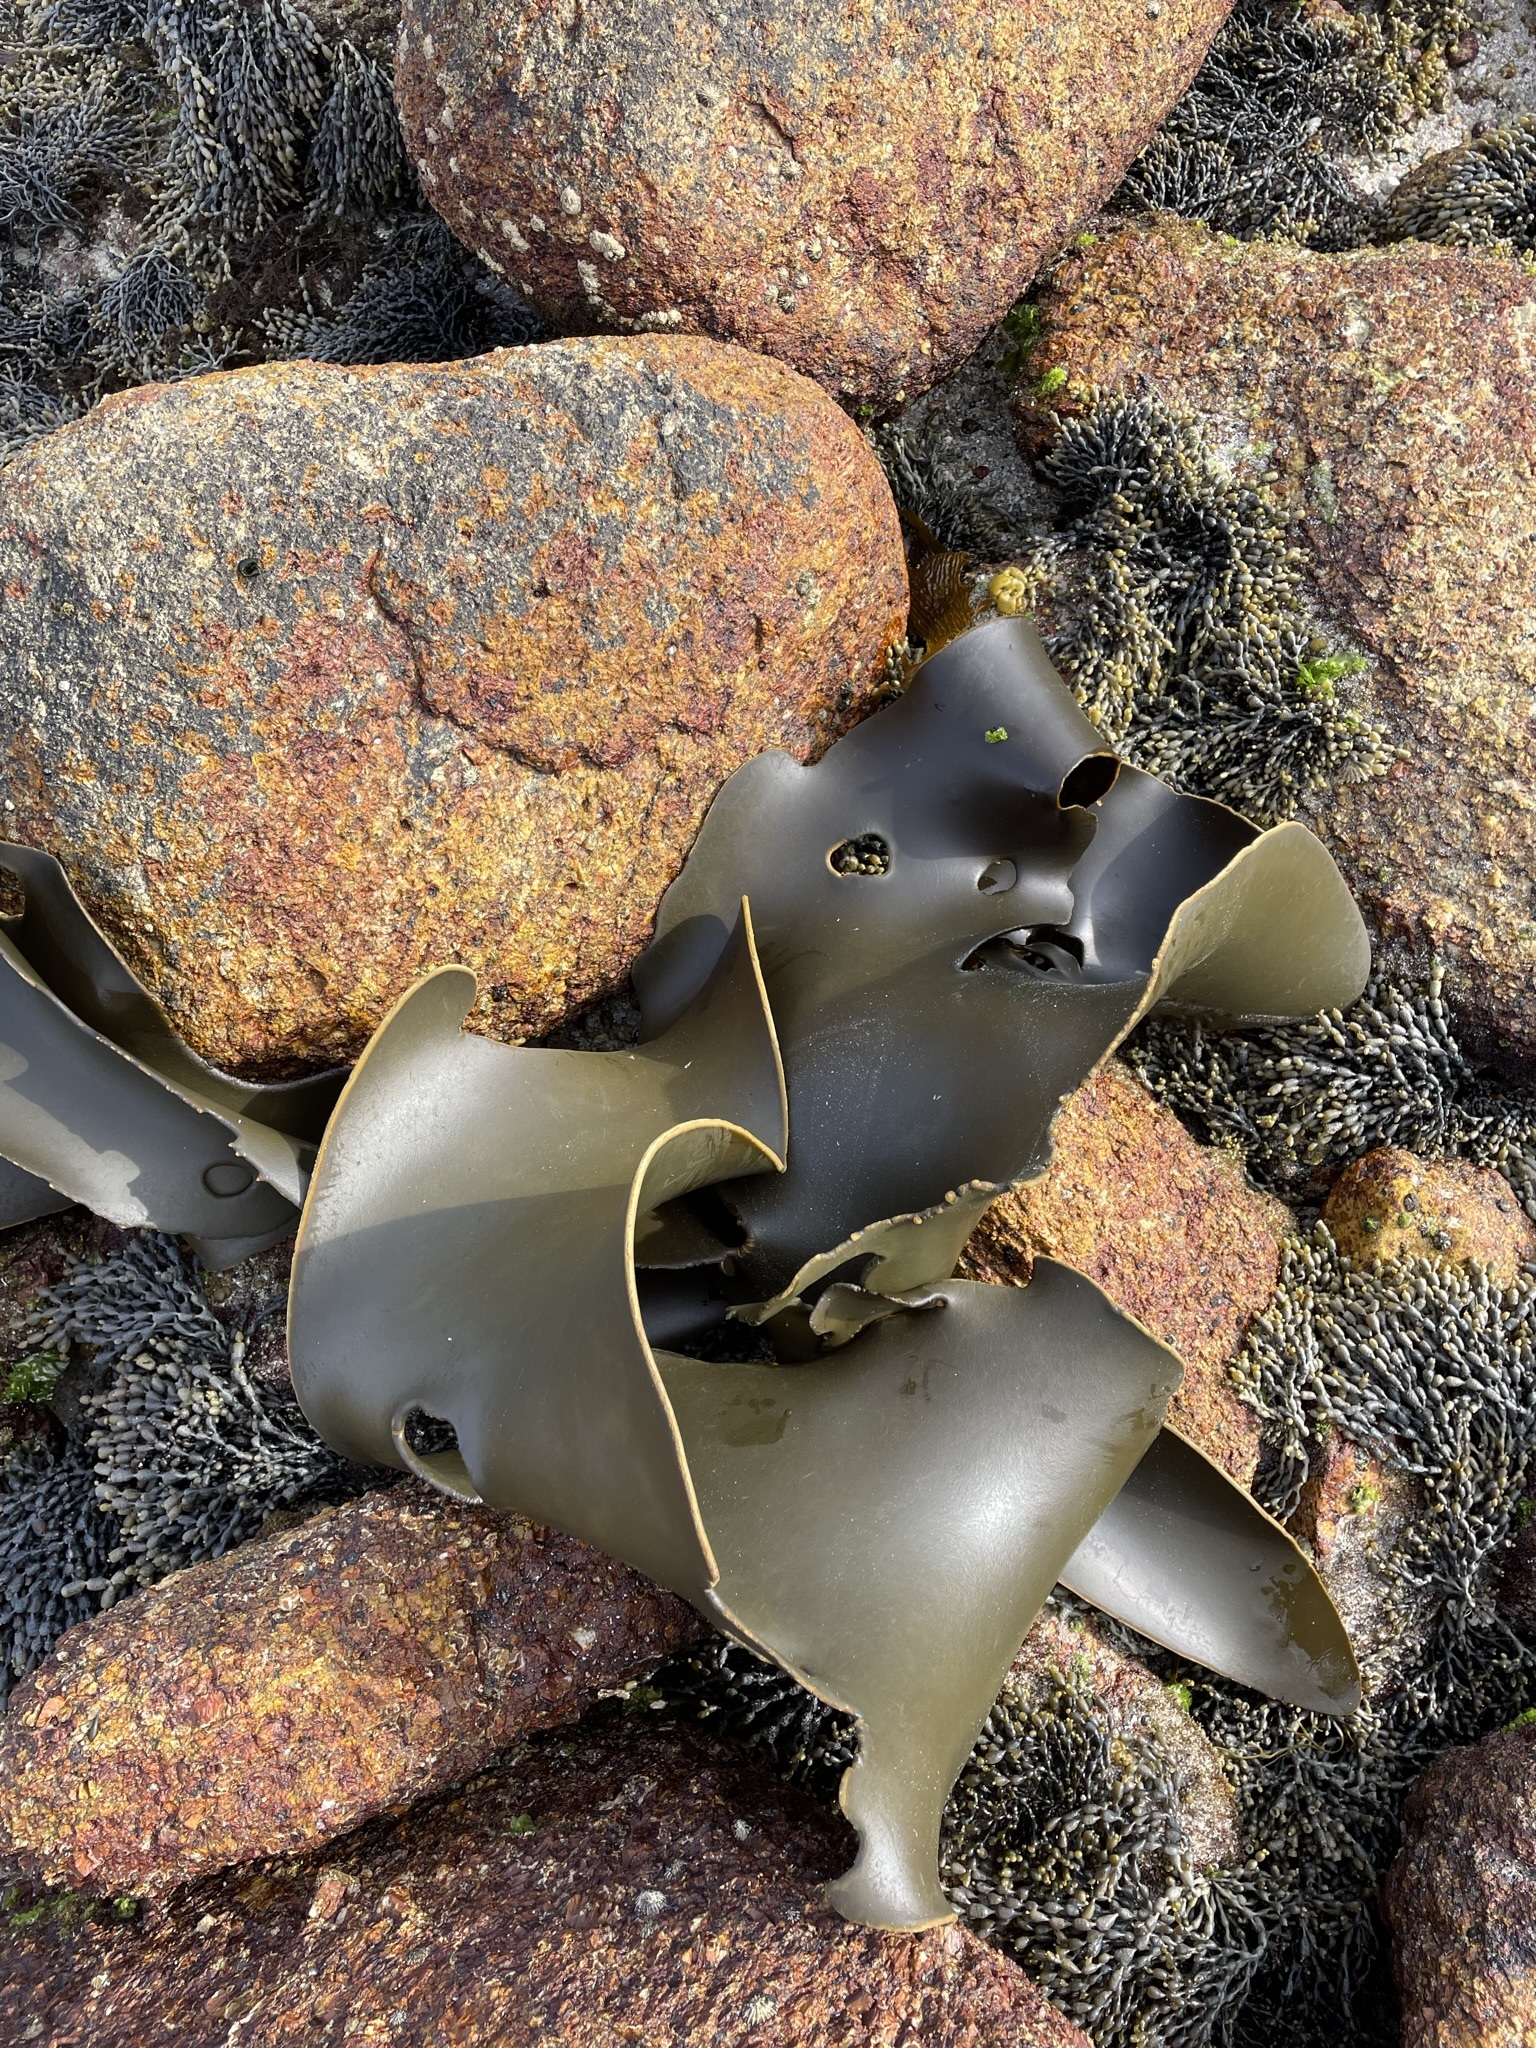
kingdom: Chromista
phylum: Ochrophyta
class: Phaeophyceae
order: Fucales
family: Durvillaeaceae
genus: Durvillaea
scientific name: Durvillaea
